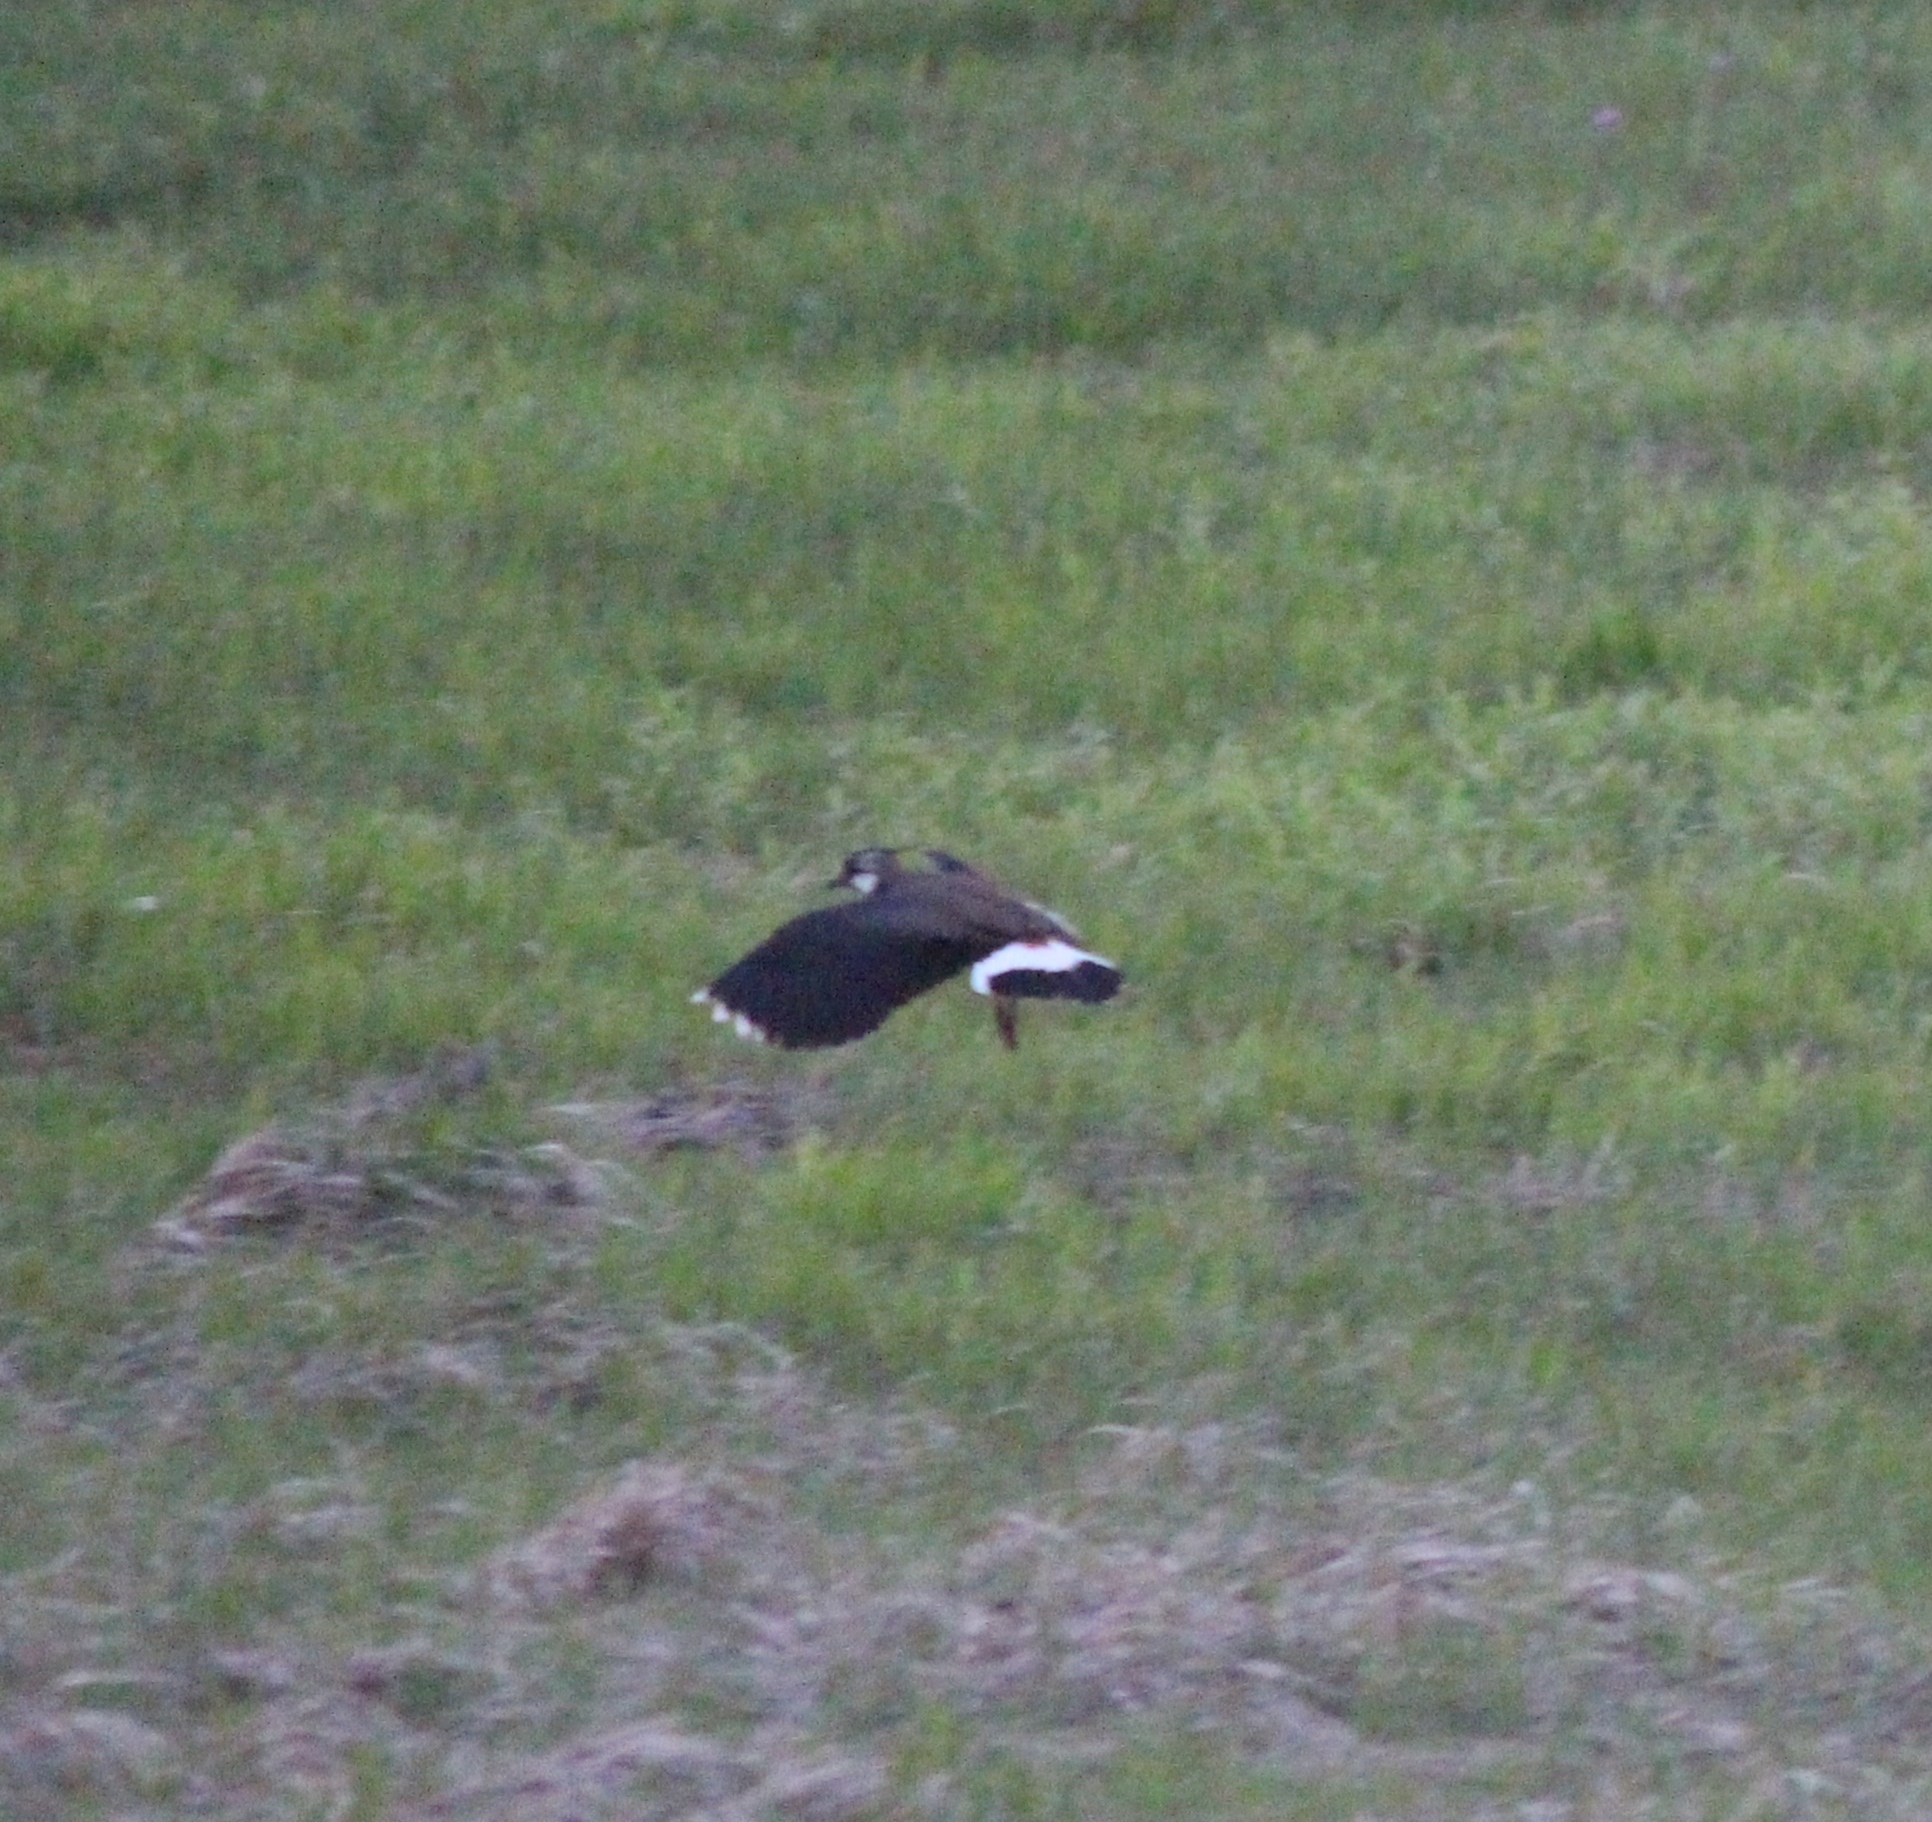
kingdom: Animalia
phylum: Chordata
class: Aves
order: Charadriiformes
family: Charadriidae
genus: Vanellus
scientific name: Vanellus vanellus
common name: Northern lapwing
